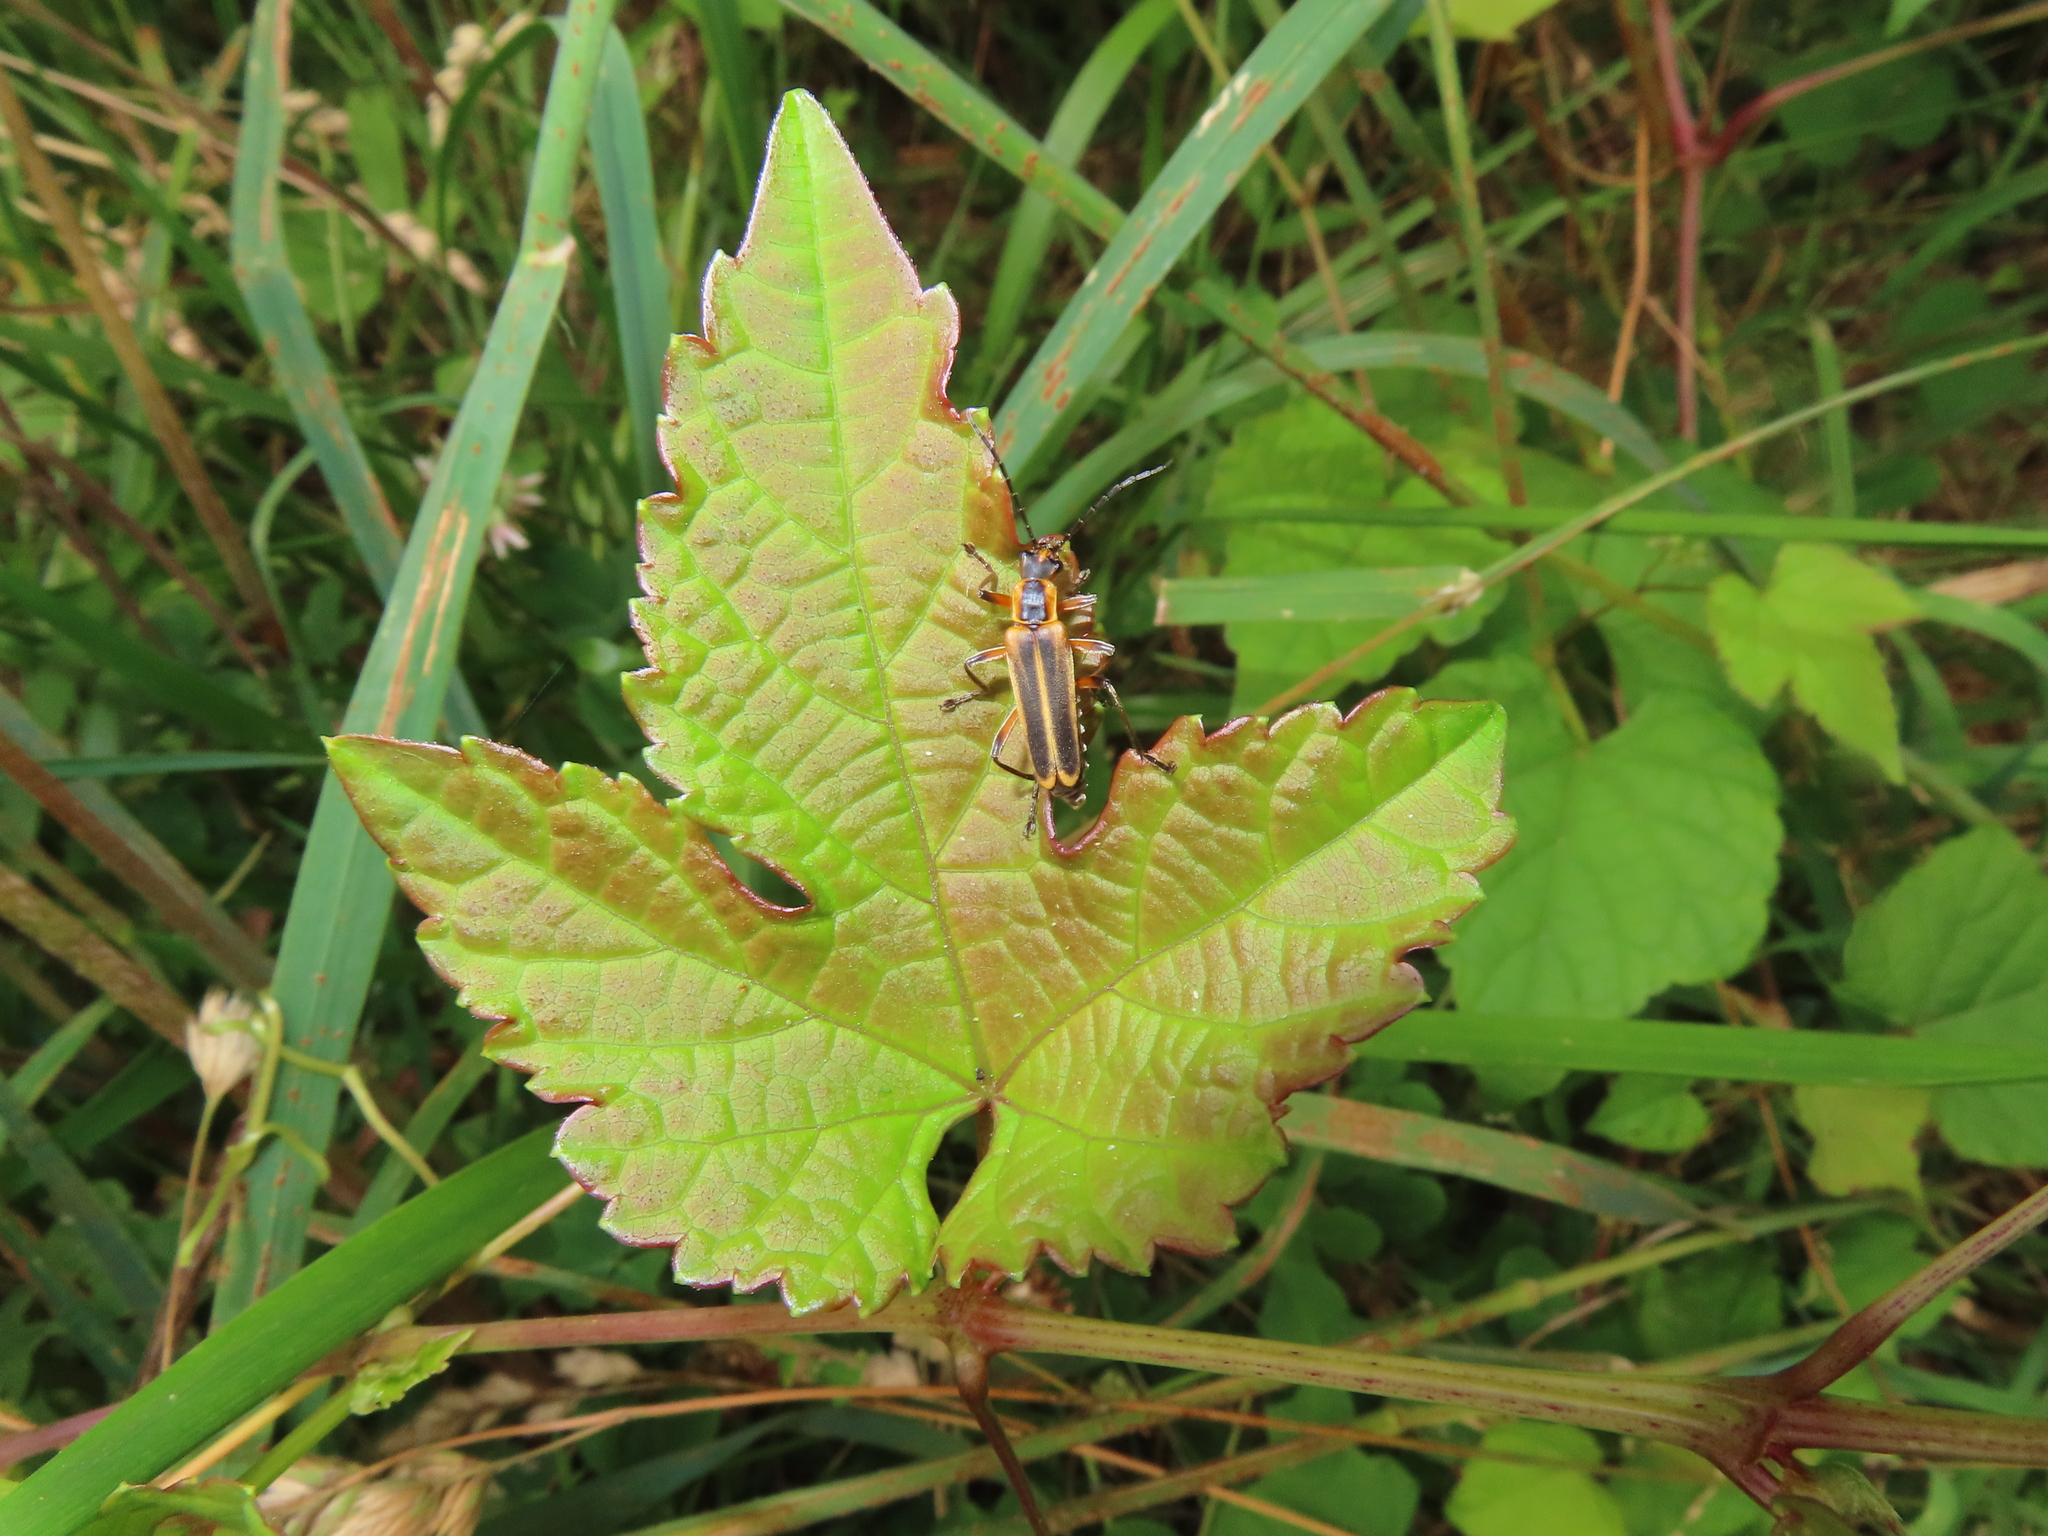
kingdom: Animalia
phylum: Arthropoda
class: Insecta
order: Coleoptera
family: Cantharidae
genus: Chauliognathus
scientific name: Chauliognathus marginatus
